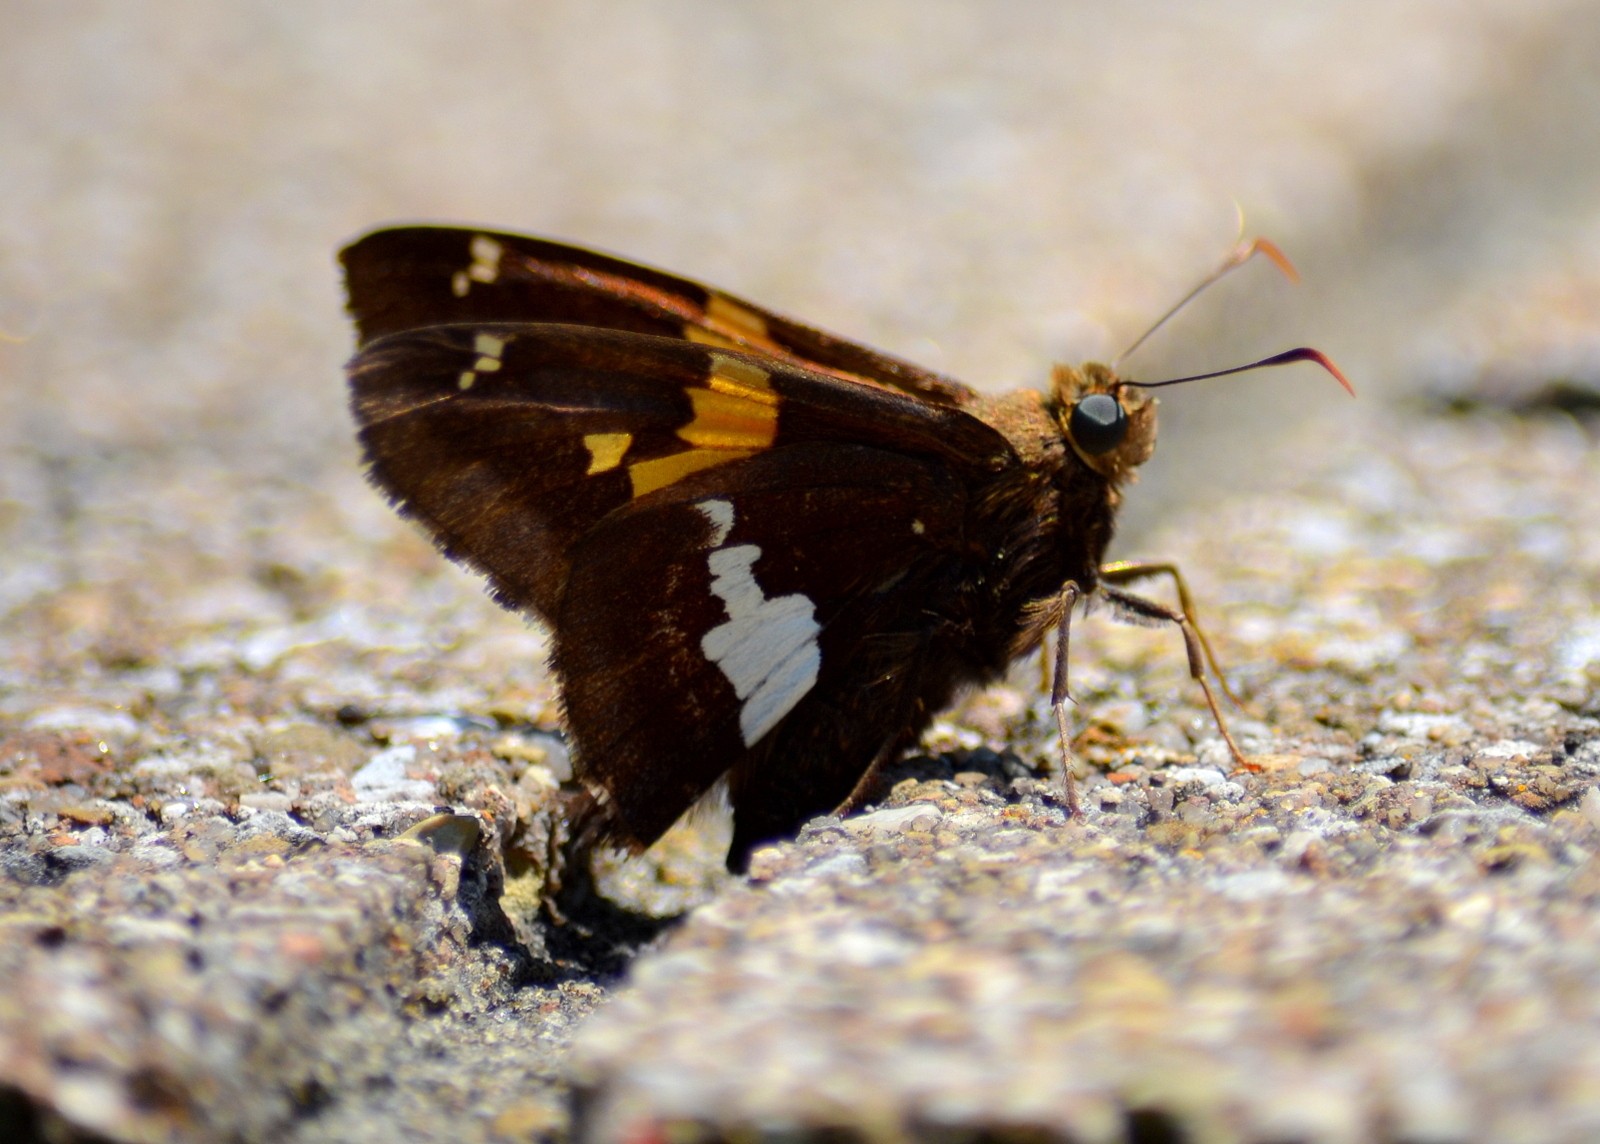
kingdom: Animalia
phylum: Arthropoda
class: Insecta
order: Lepidoptera
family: Hesperiidae
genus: Epargyreus
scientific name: Epargyreus clarus
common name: Silver-spotted skipper
